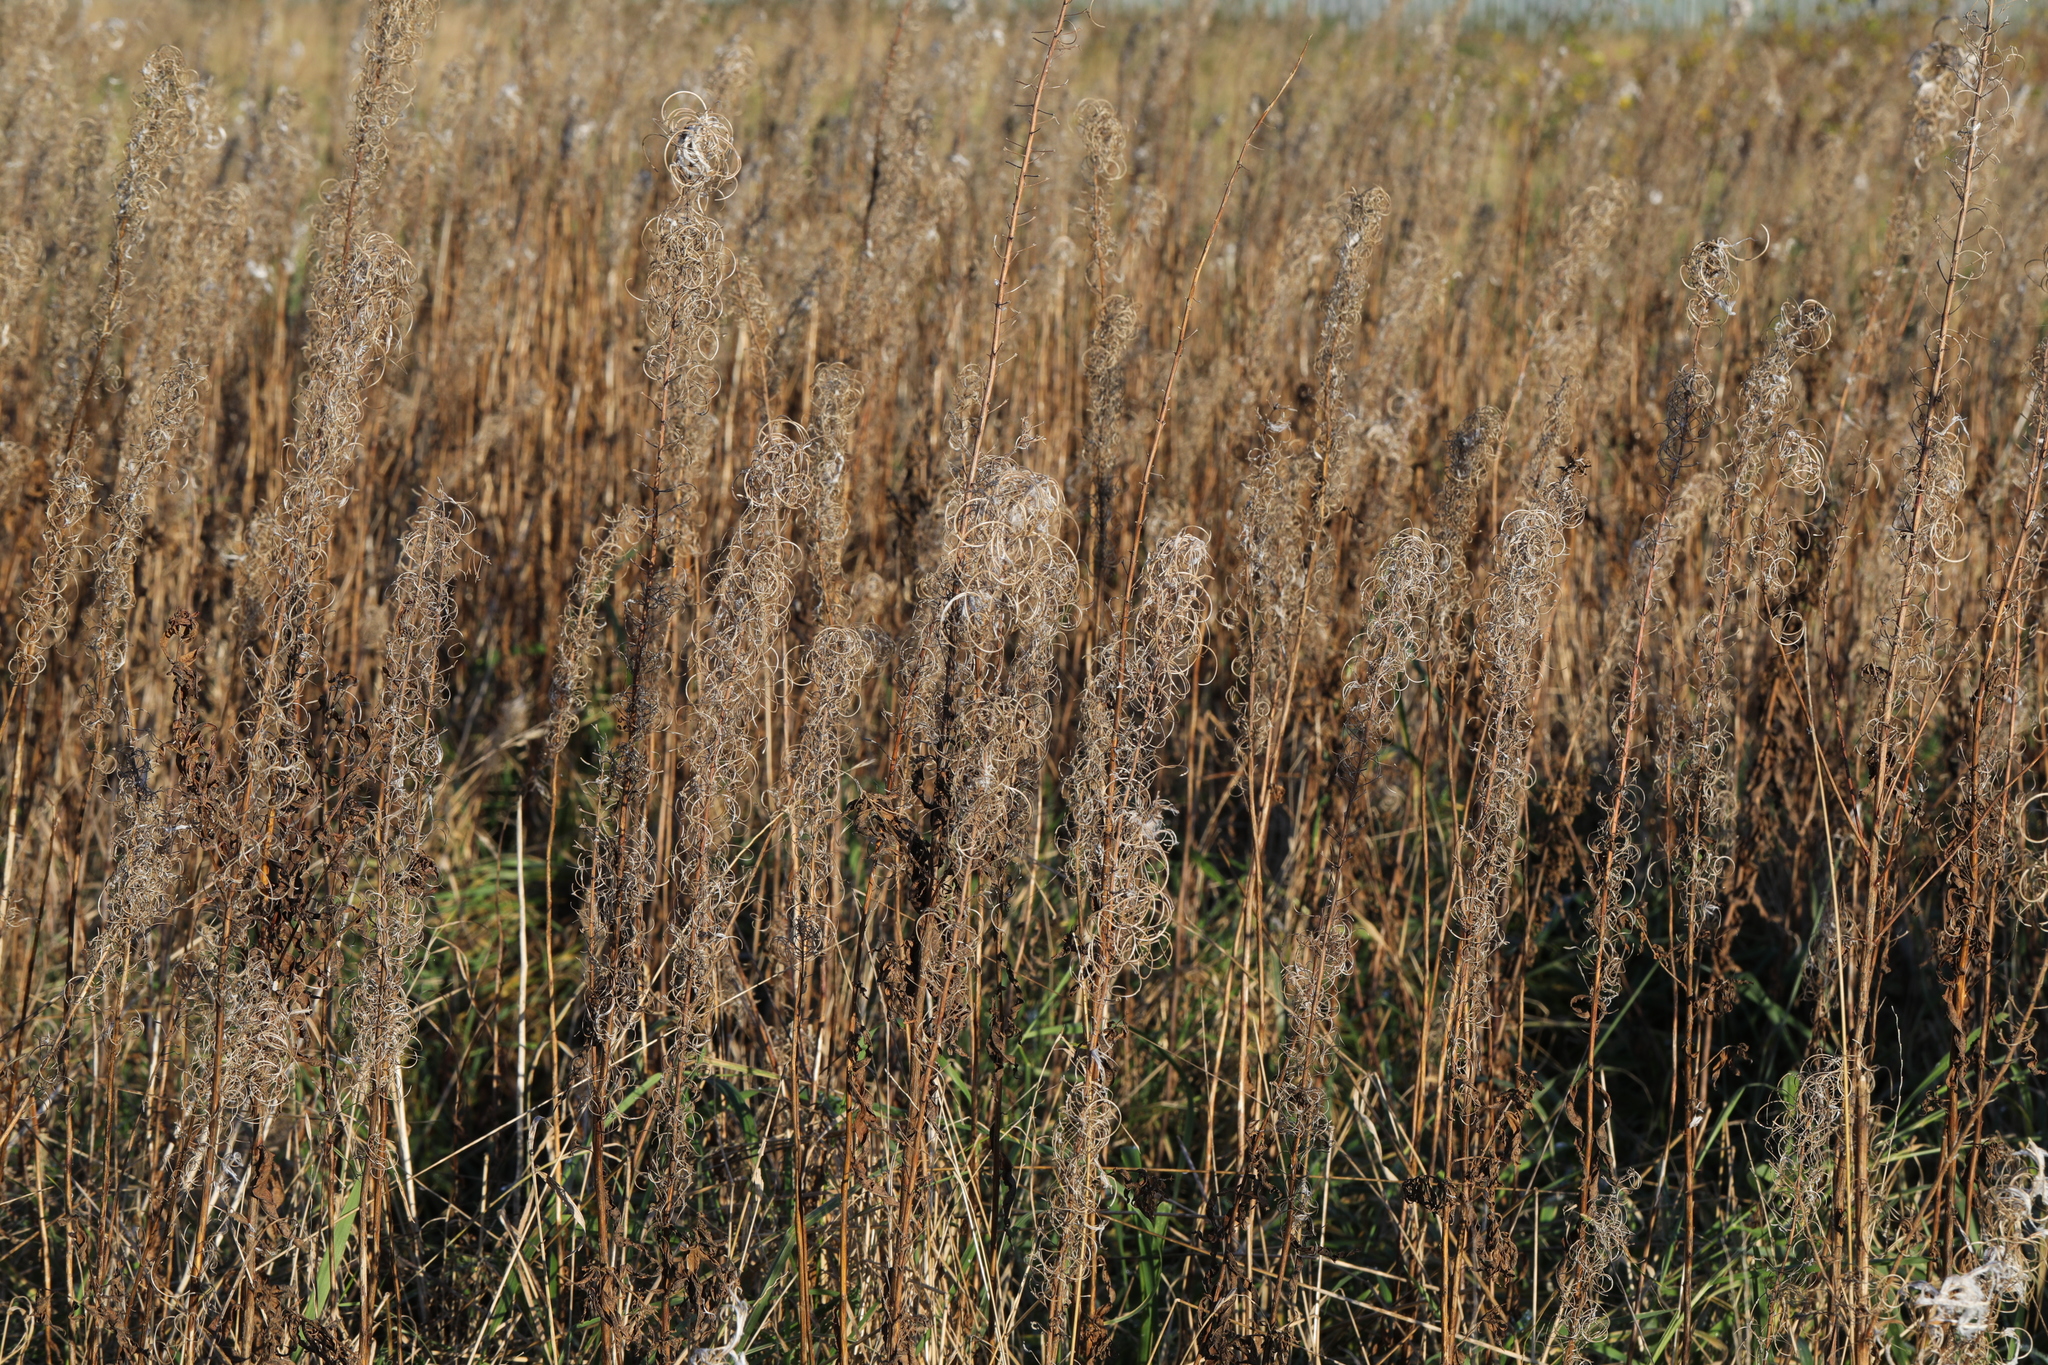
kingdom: Plantae
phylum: Tracheophyta
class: Magnoliopsida
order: Myrtales
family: Onagraceae
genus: Chamaenerion
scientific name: Chamaenerion angustifolium
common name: Fireweed
